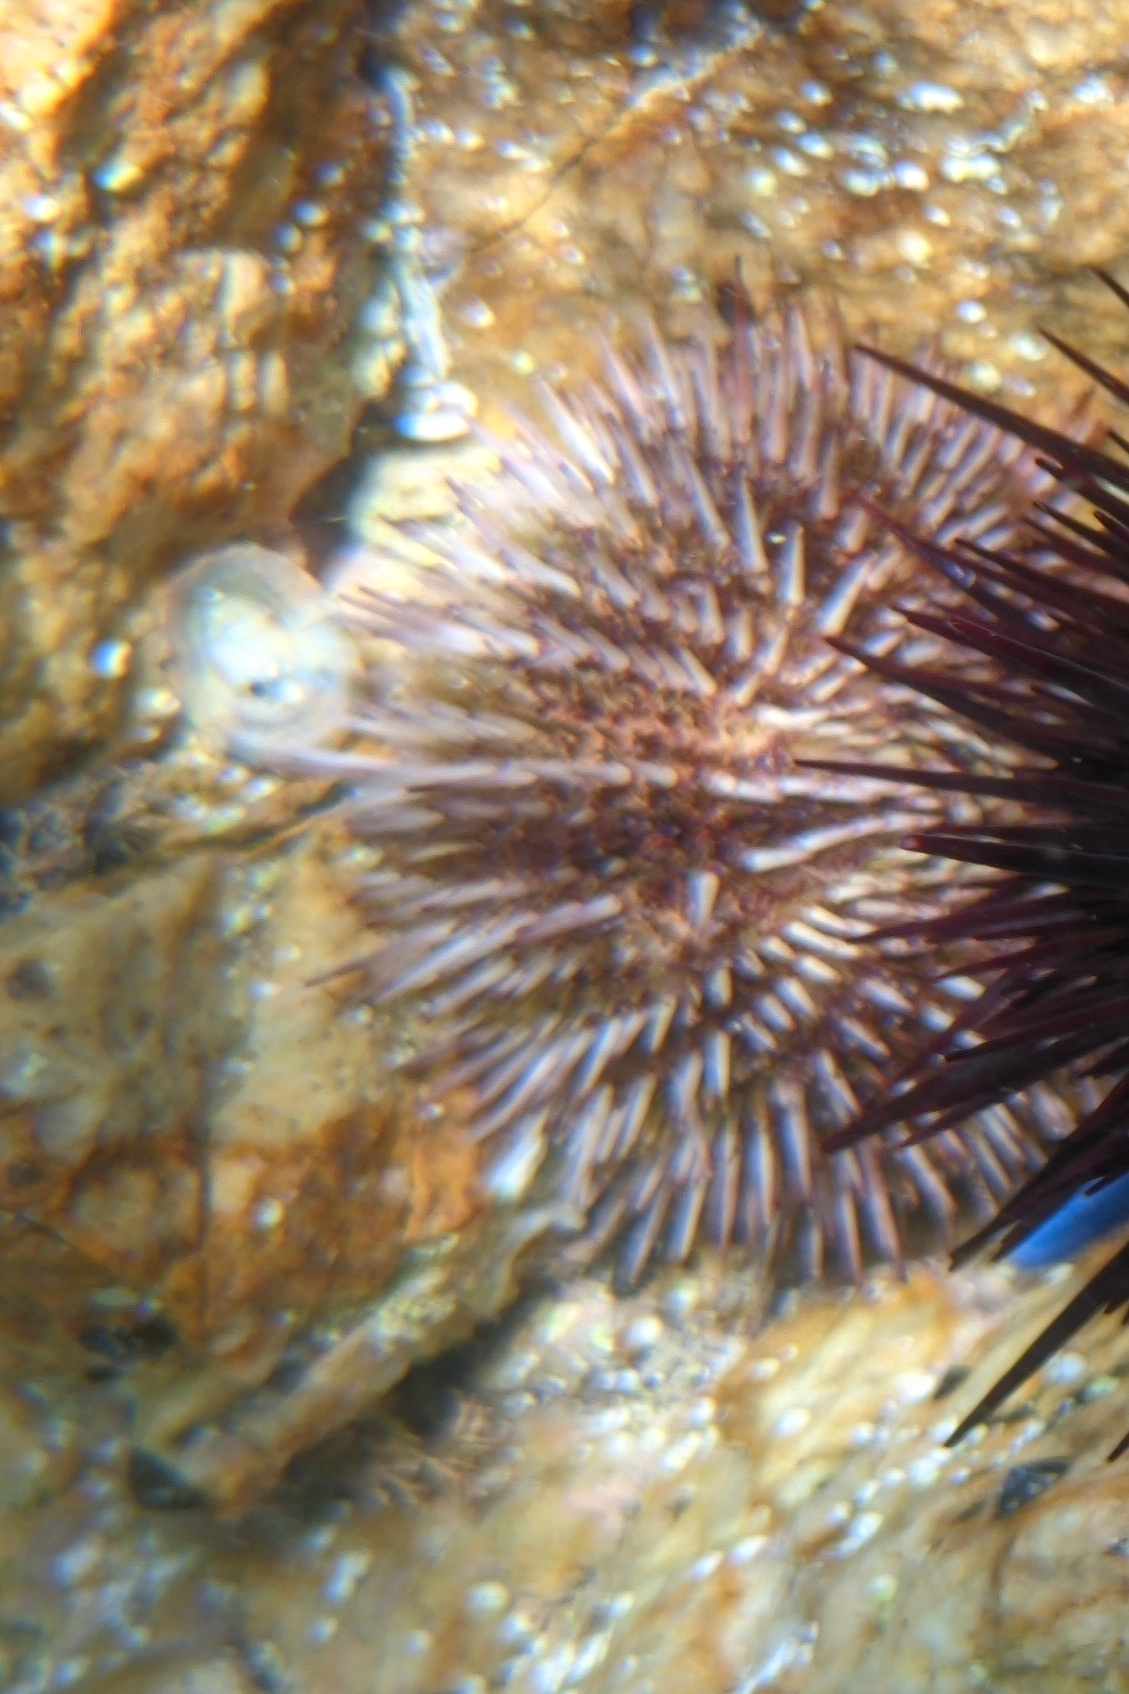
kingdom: Animalia
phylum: Echinodermata
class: Echinoidea
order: Camarodonta
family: Strongylocentrotidae
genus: Strongylocentrotus
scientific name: Strongylocentrotus intermedius
